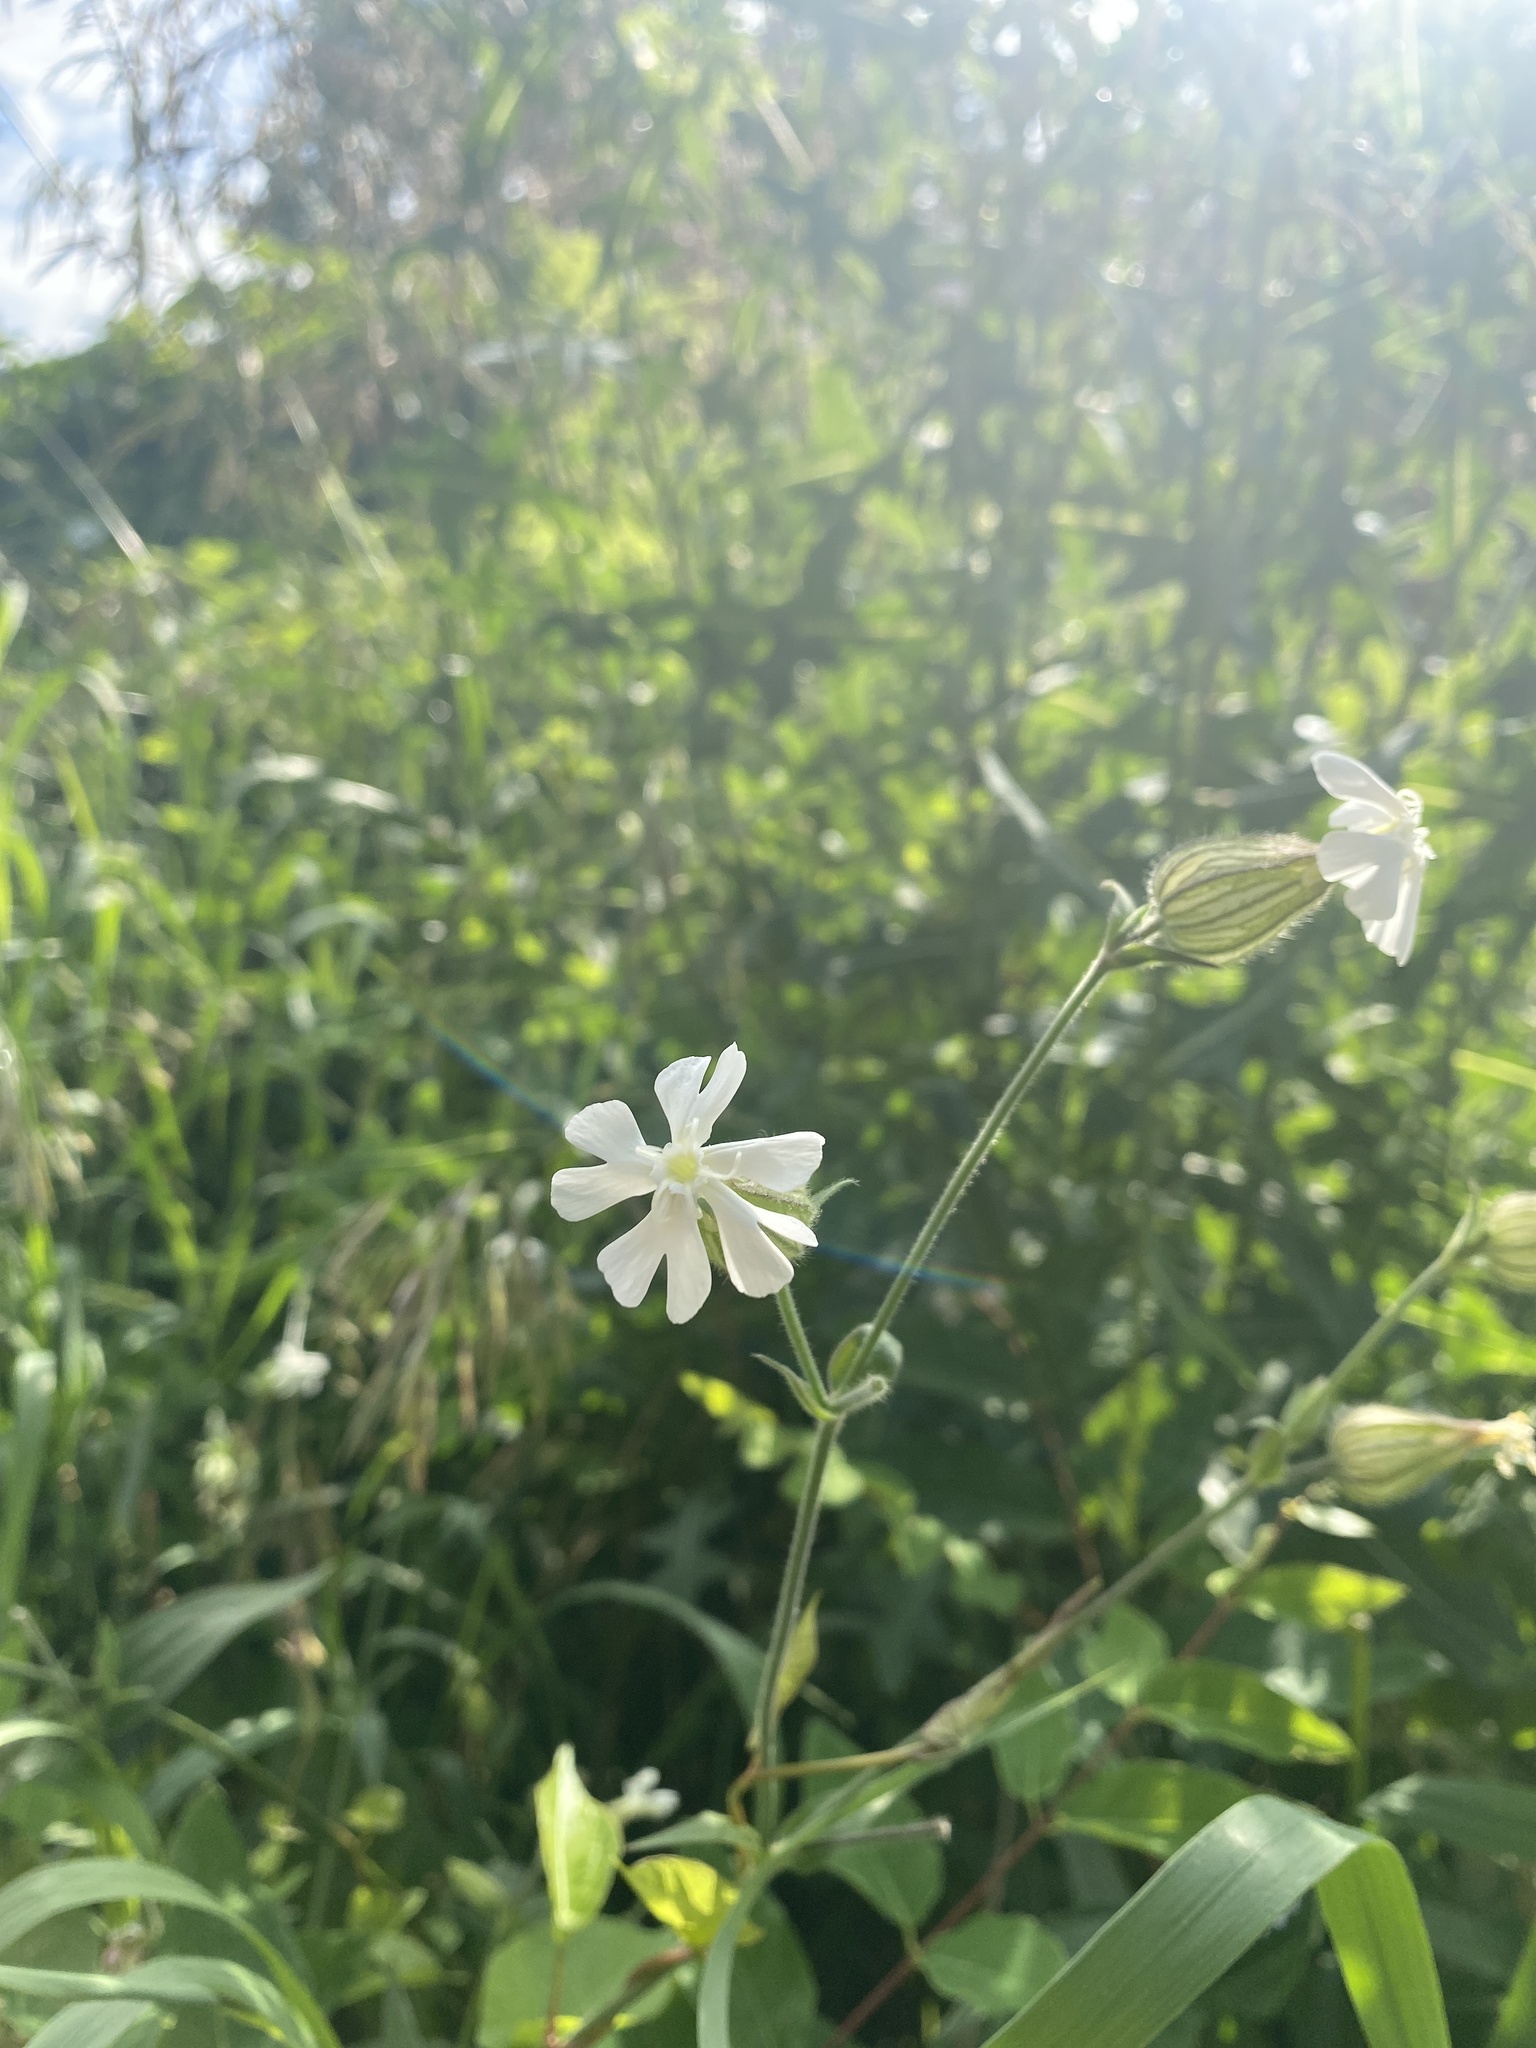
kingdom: Plantae
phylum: Tracheophyta
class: Magnoliopsida
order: Caryophyllales
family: Caryophyllaceae
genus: Silene
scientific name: Silene latifolia
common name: White campion
